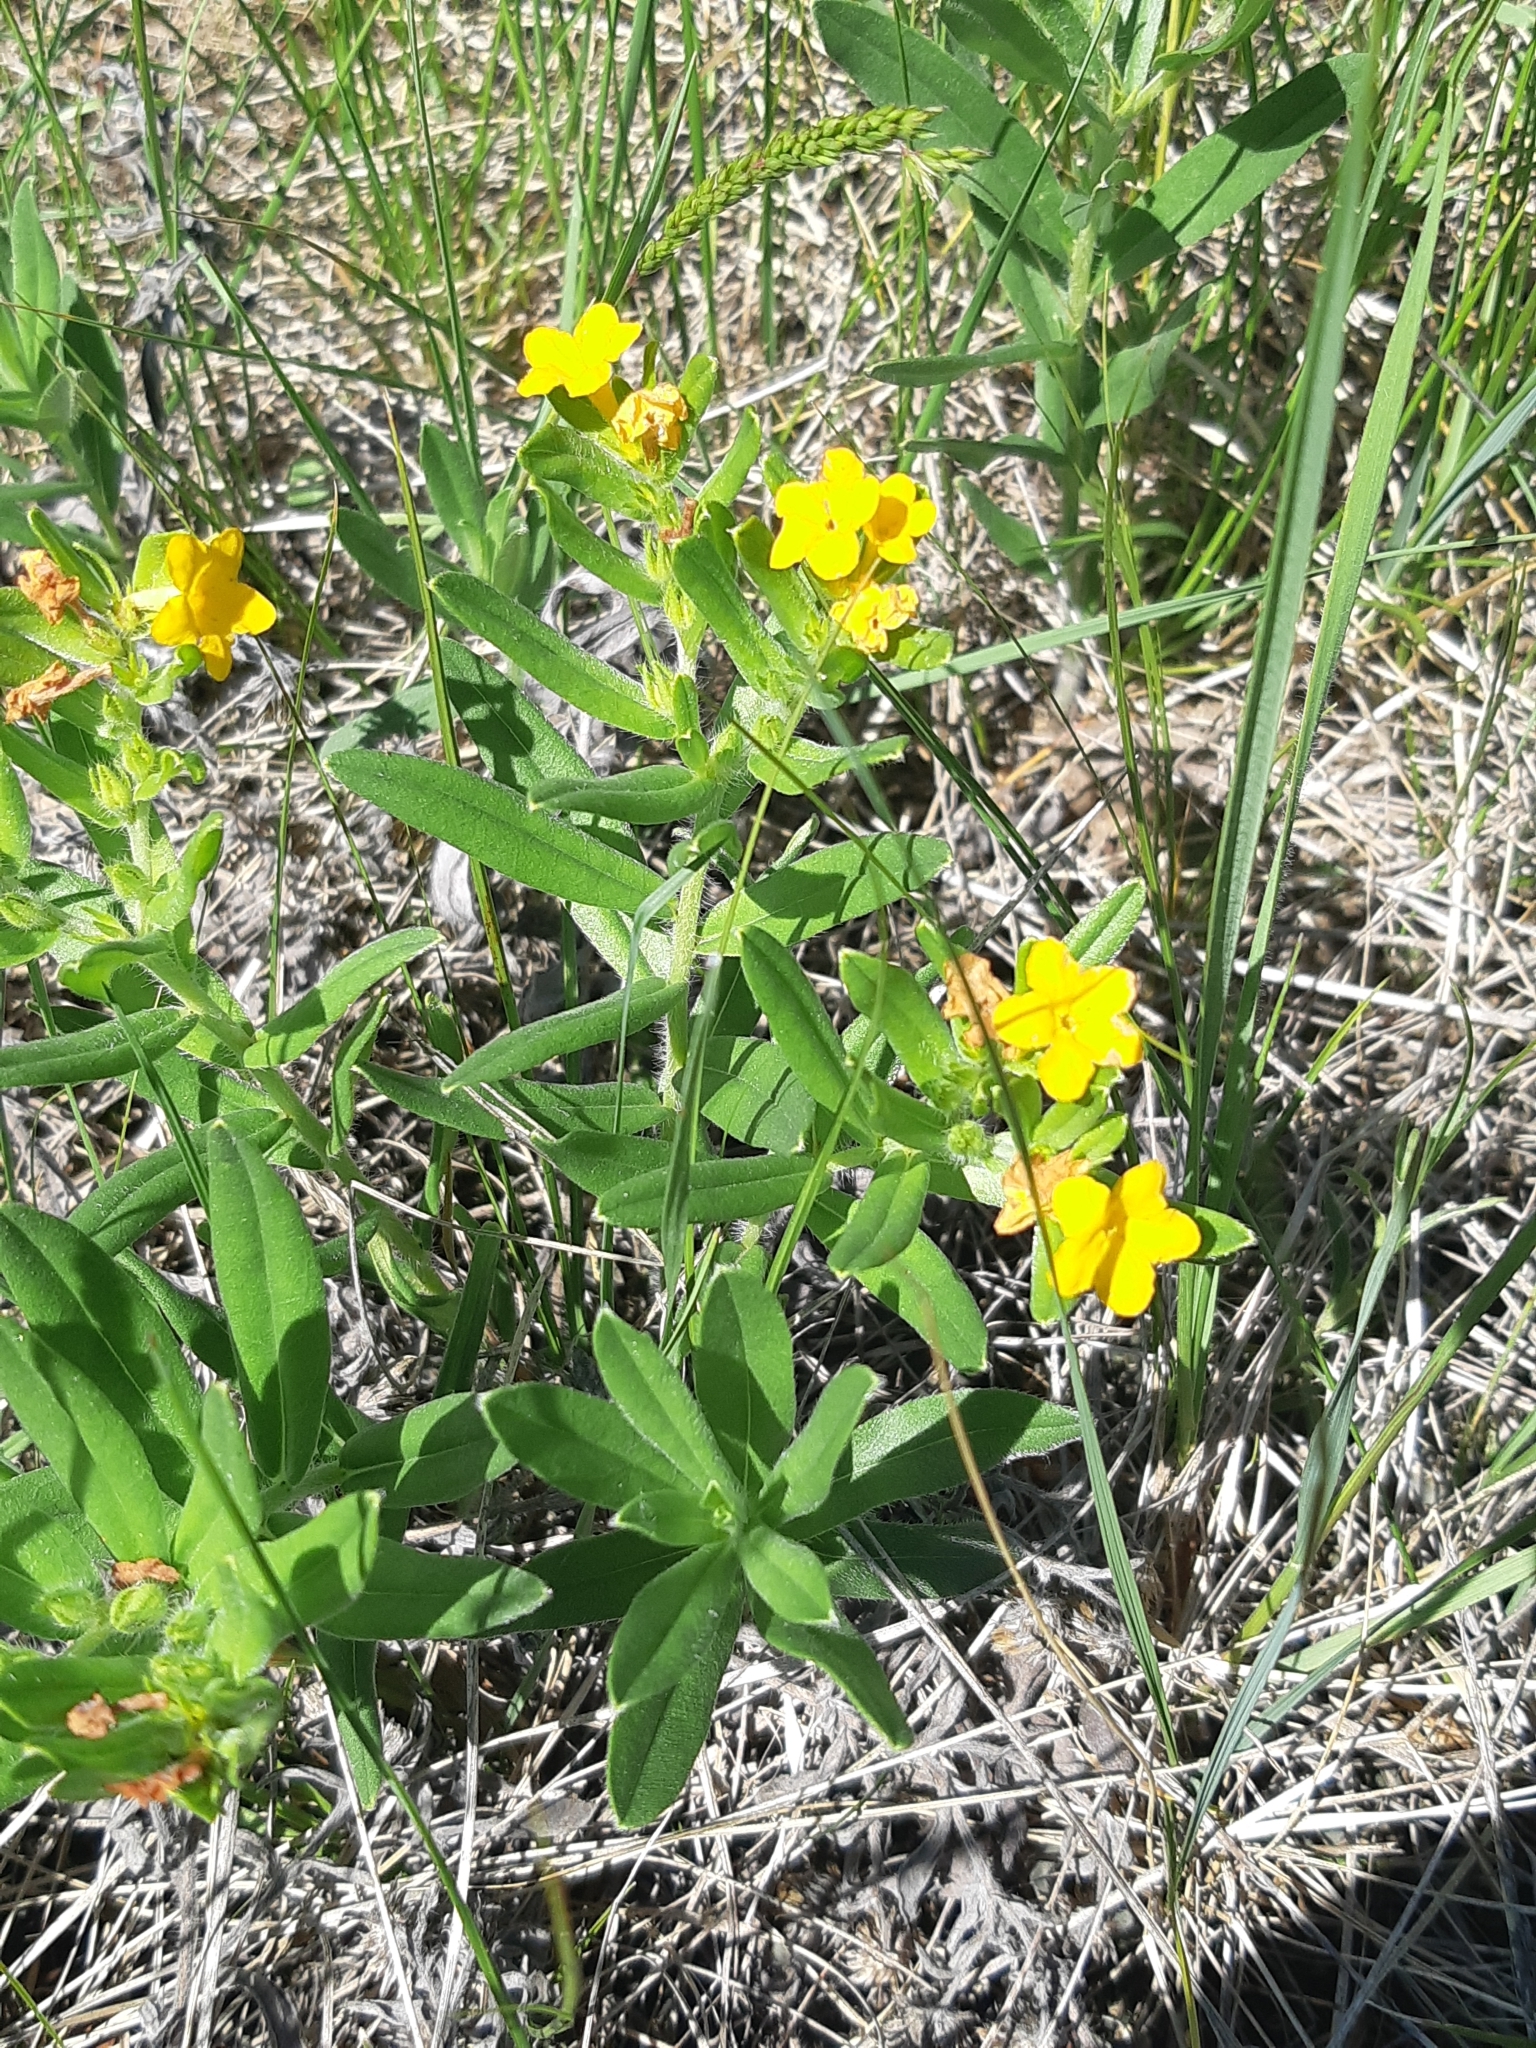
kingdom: Plantae
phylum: Tracheophyta
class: Magnoliopsida
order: Boraginales
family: Boraginaceae
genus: Lithospermum
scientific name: Lithospermum canescens
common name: Hoary puccoon
